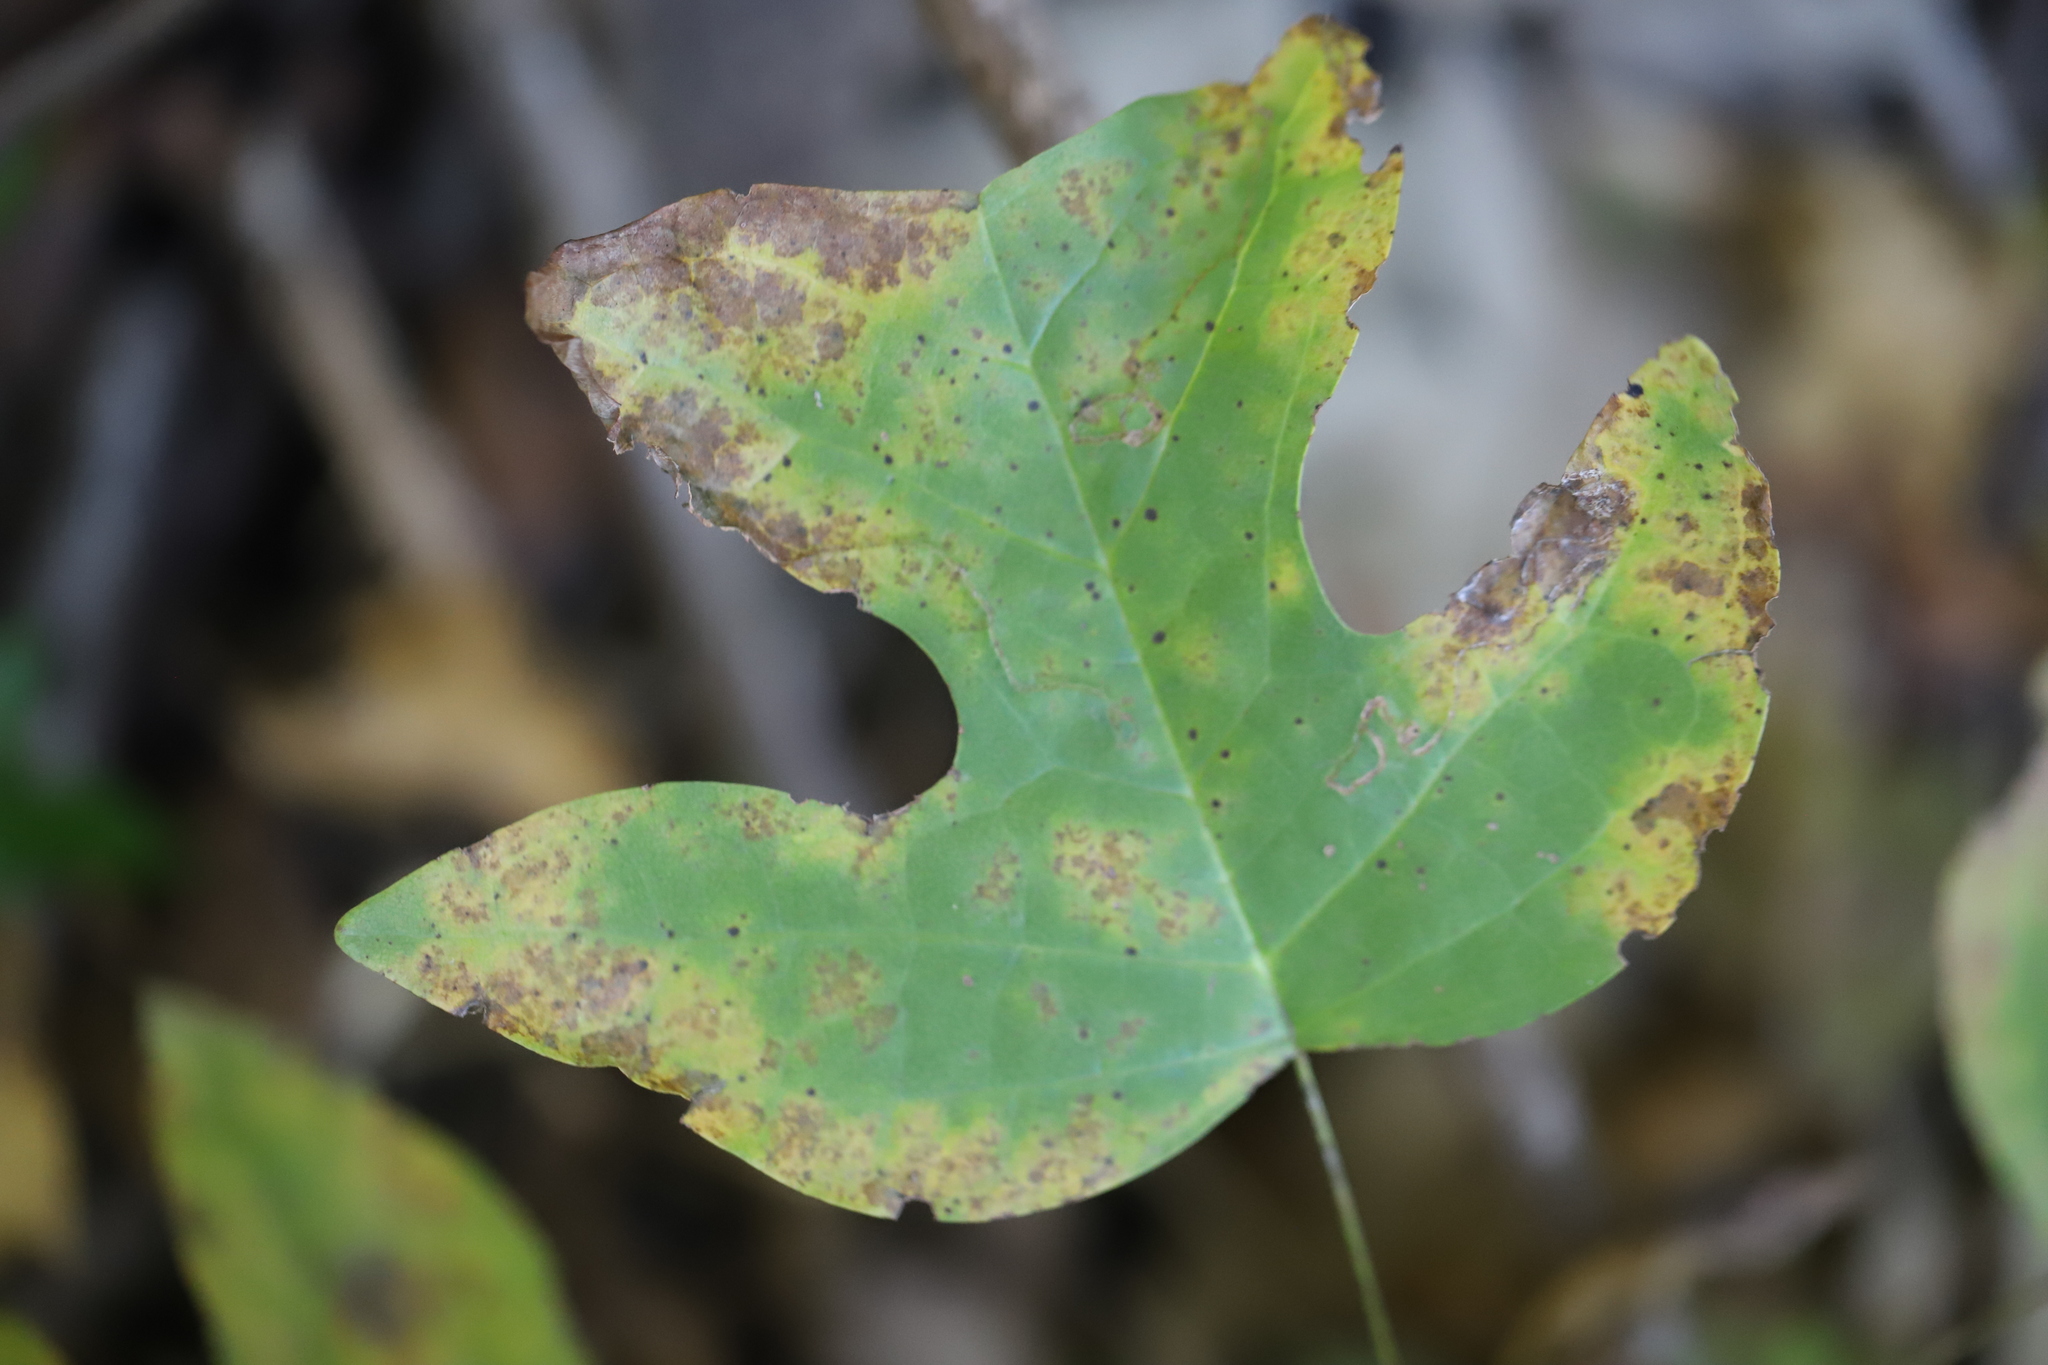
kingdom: Plantae
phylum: Tracheophyta
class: Magnoliopsida
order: Magnoliales
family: Magnoliaceae
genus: Liriodendron
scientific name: Liriodendron tulipifera
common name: Tulip tree
